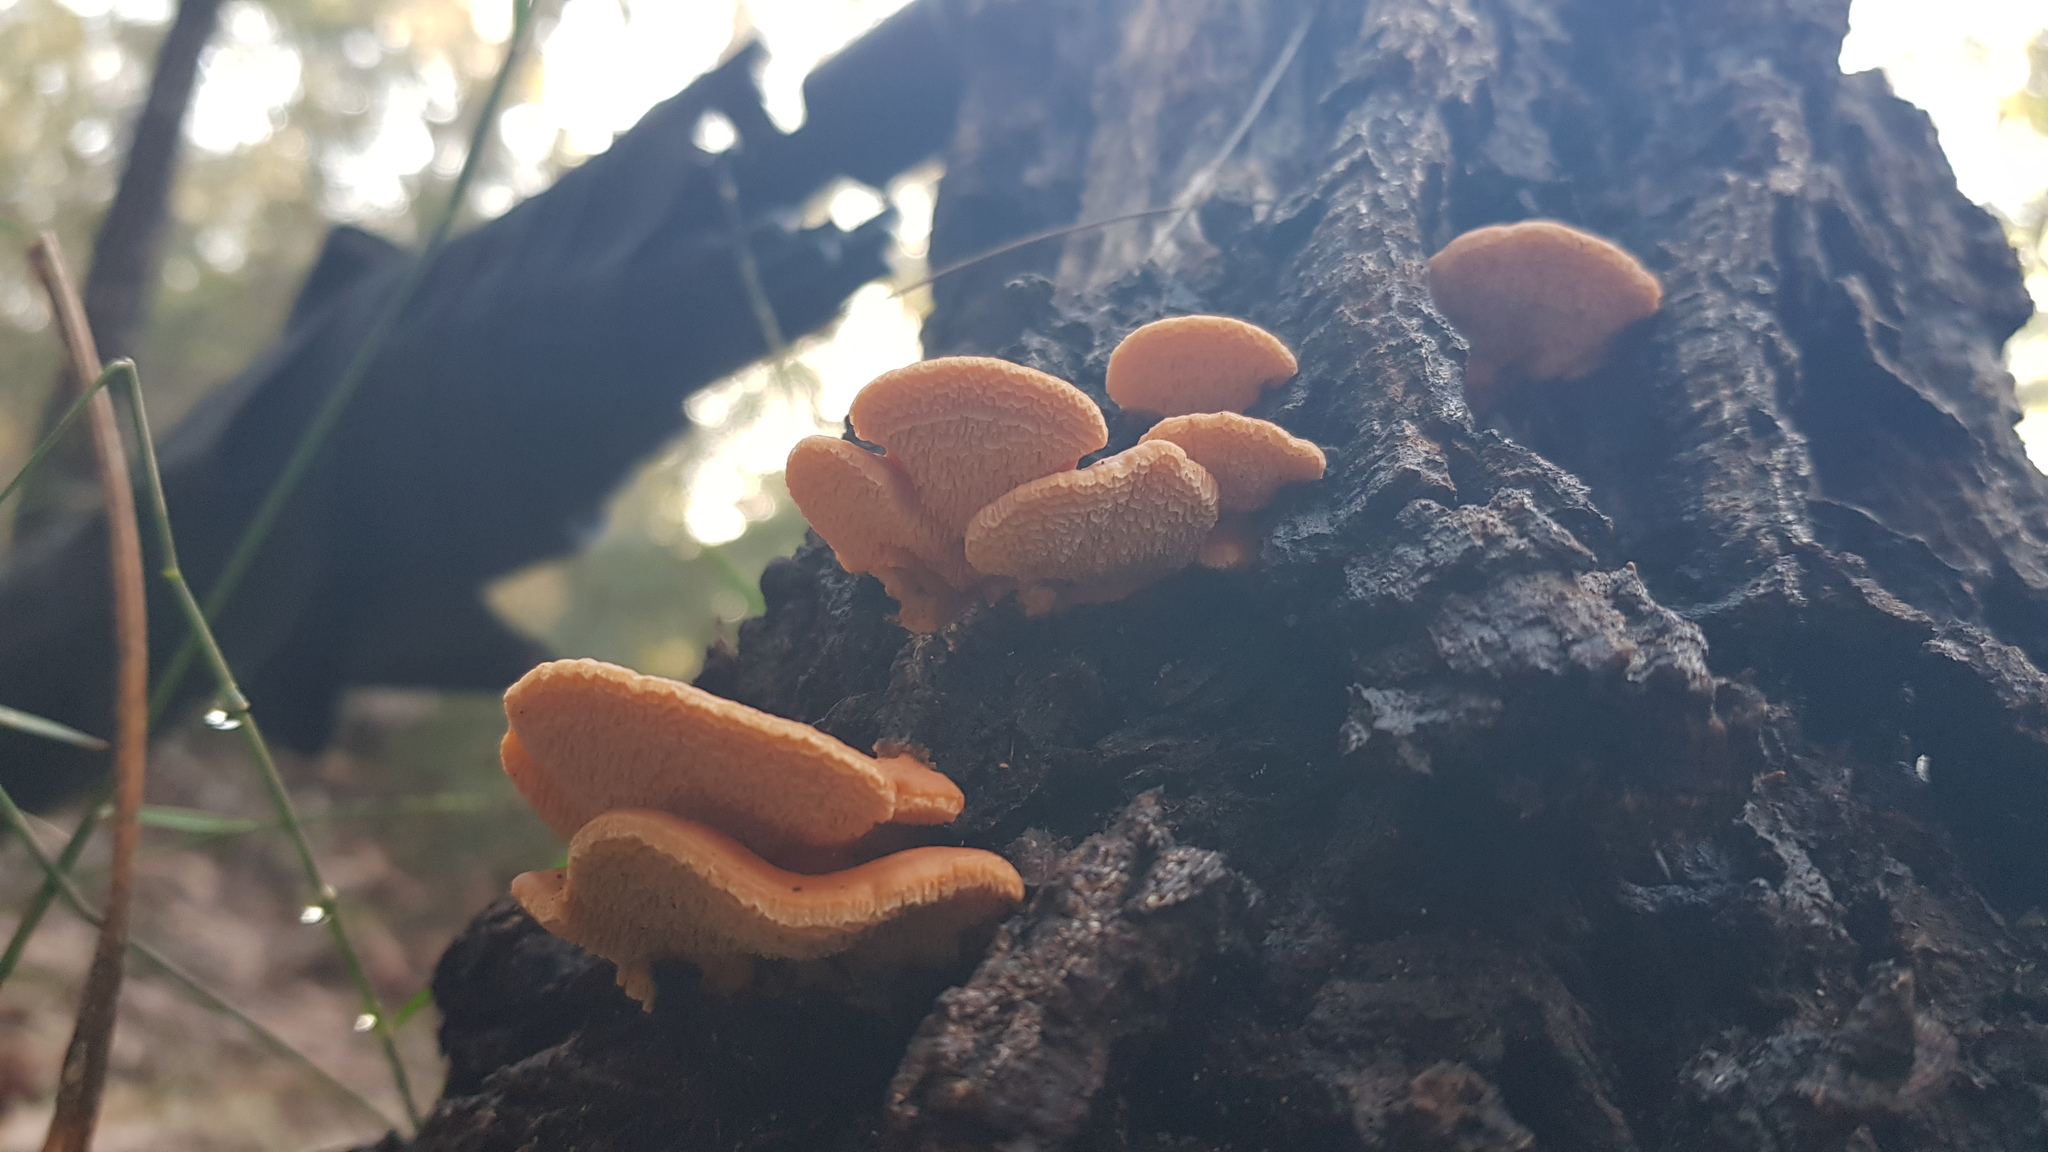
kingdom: Fungi
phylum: Basidiomycota
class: Agaricomycetes
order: Polyporales
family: Cerrenaceae
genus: Cerrena
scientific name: Cerrena zonata
